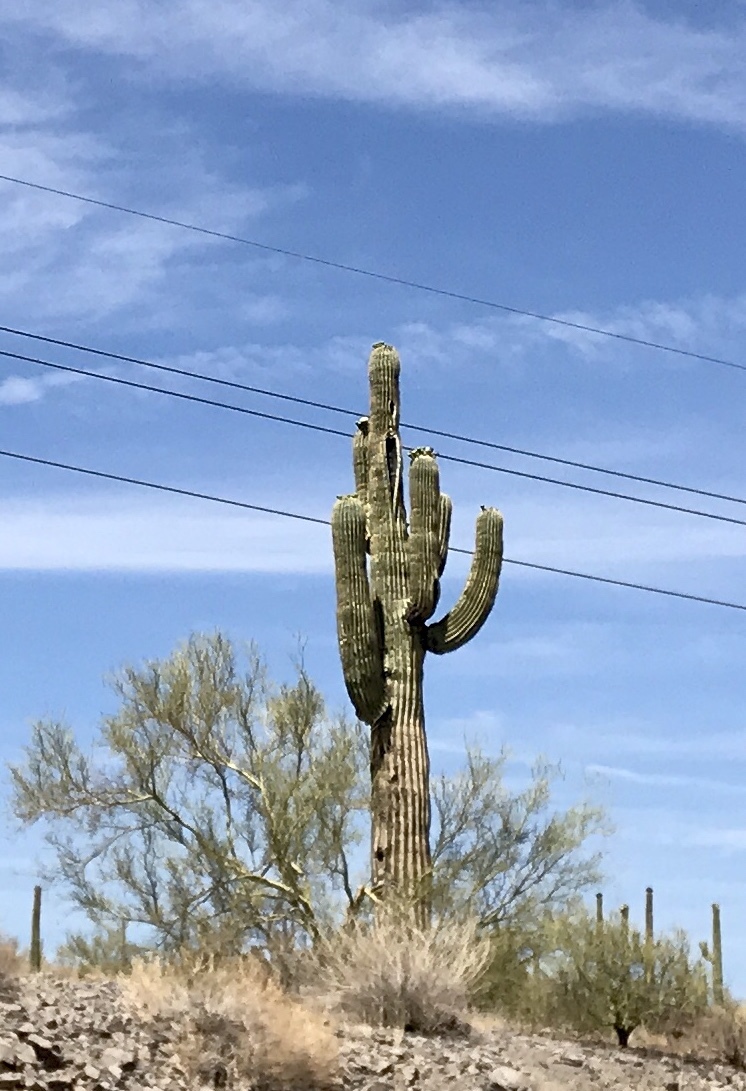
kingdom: Plantae
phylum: Tracheophyta
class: Magnoliopsida
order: Caryophyllales
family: Cactaceae
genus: Carnegiea
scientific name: Carnegiea gigantea
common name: Saguaro
